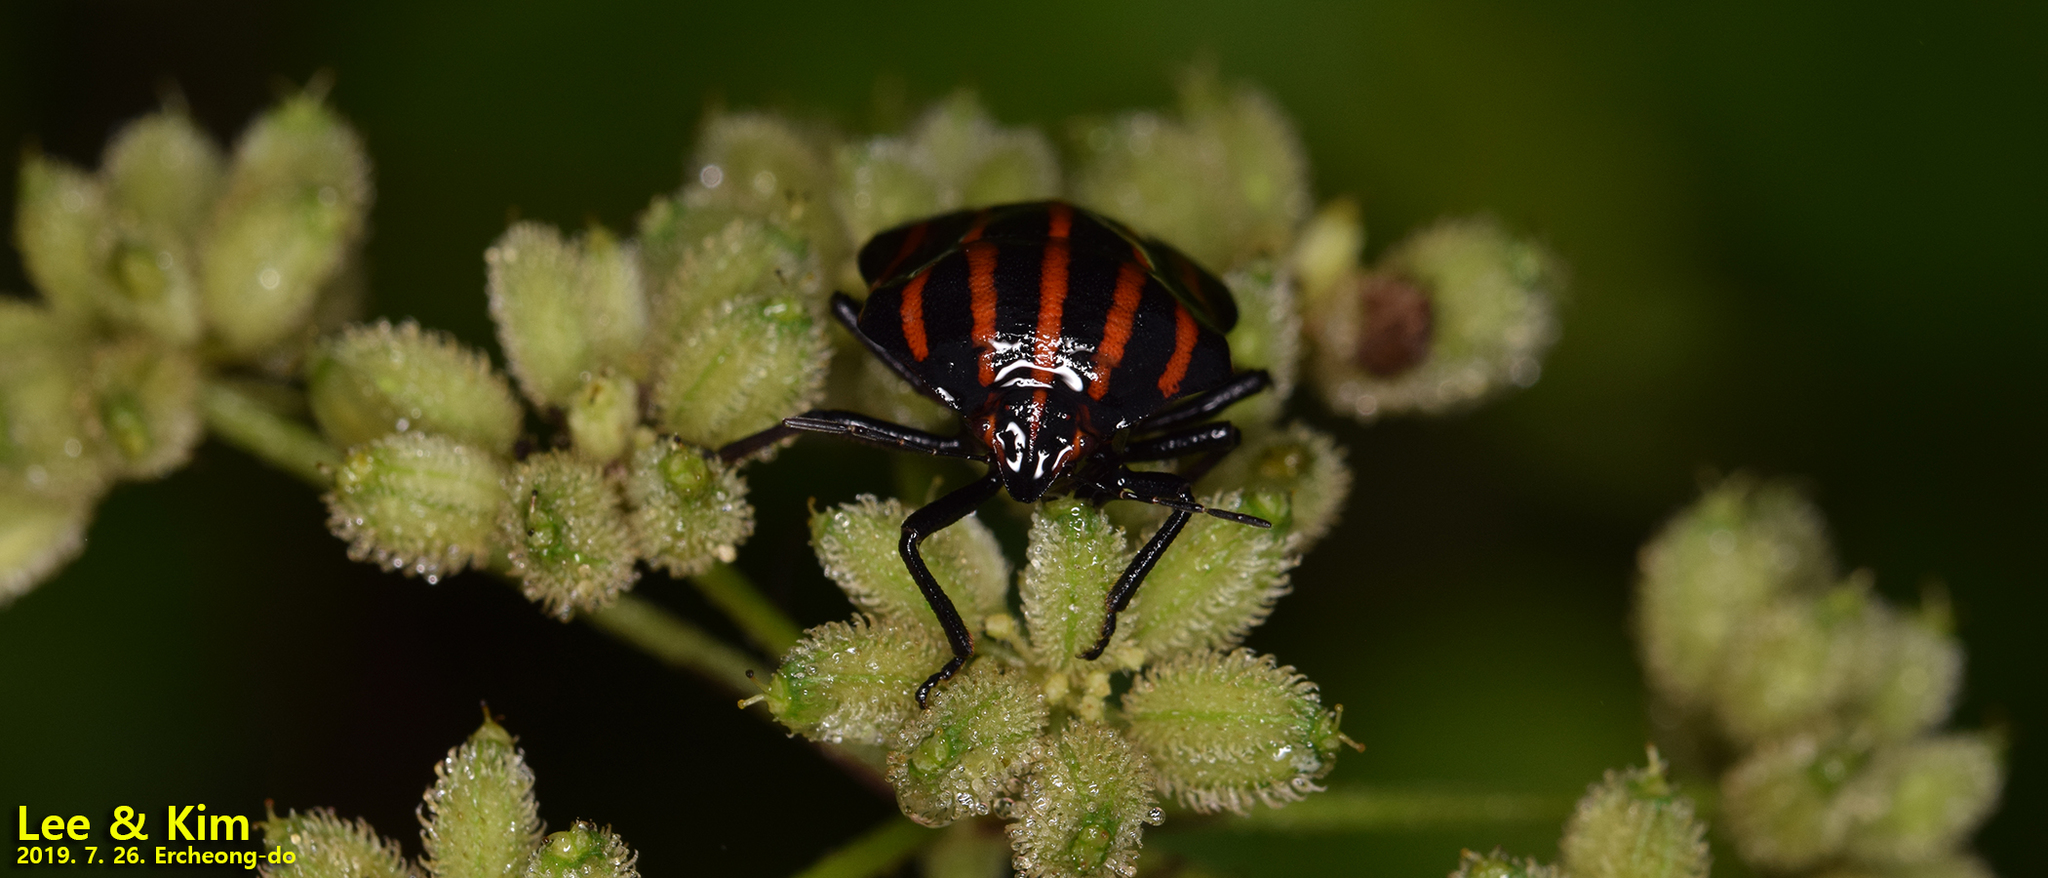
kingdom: Animalia
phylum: Arthropoda
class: Insecta
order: Hemiptera
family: Pentatomidae
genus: Graphosoma
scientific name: Graphosoma rubrolineatum
